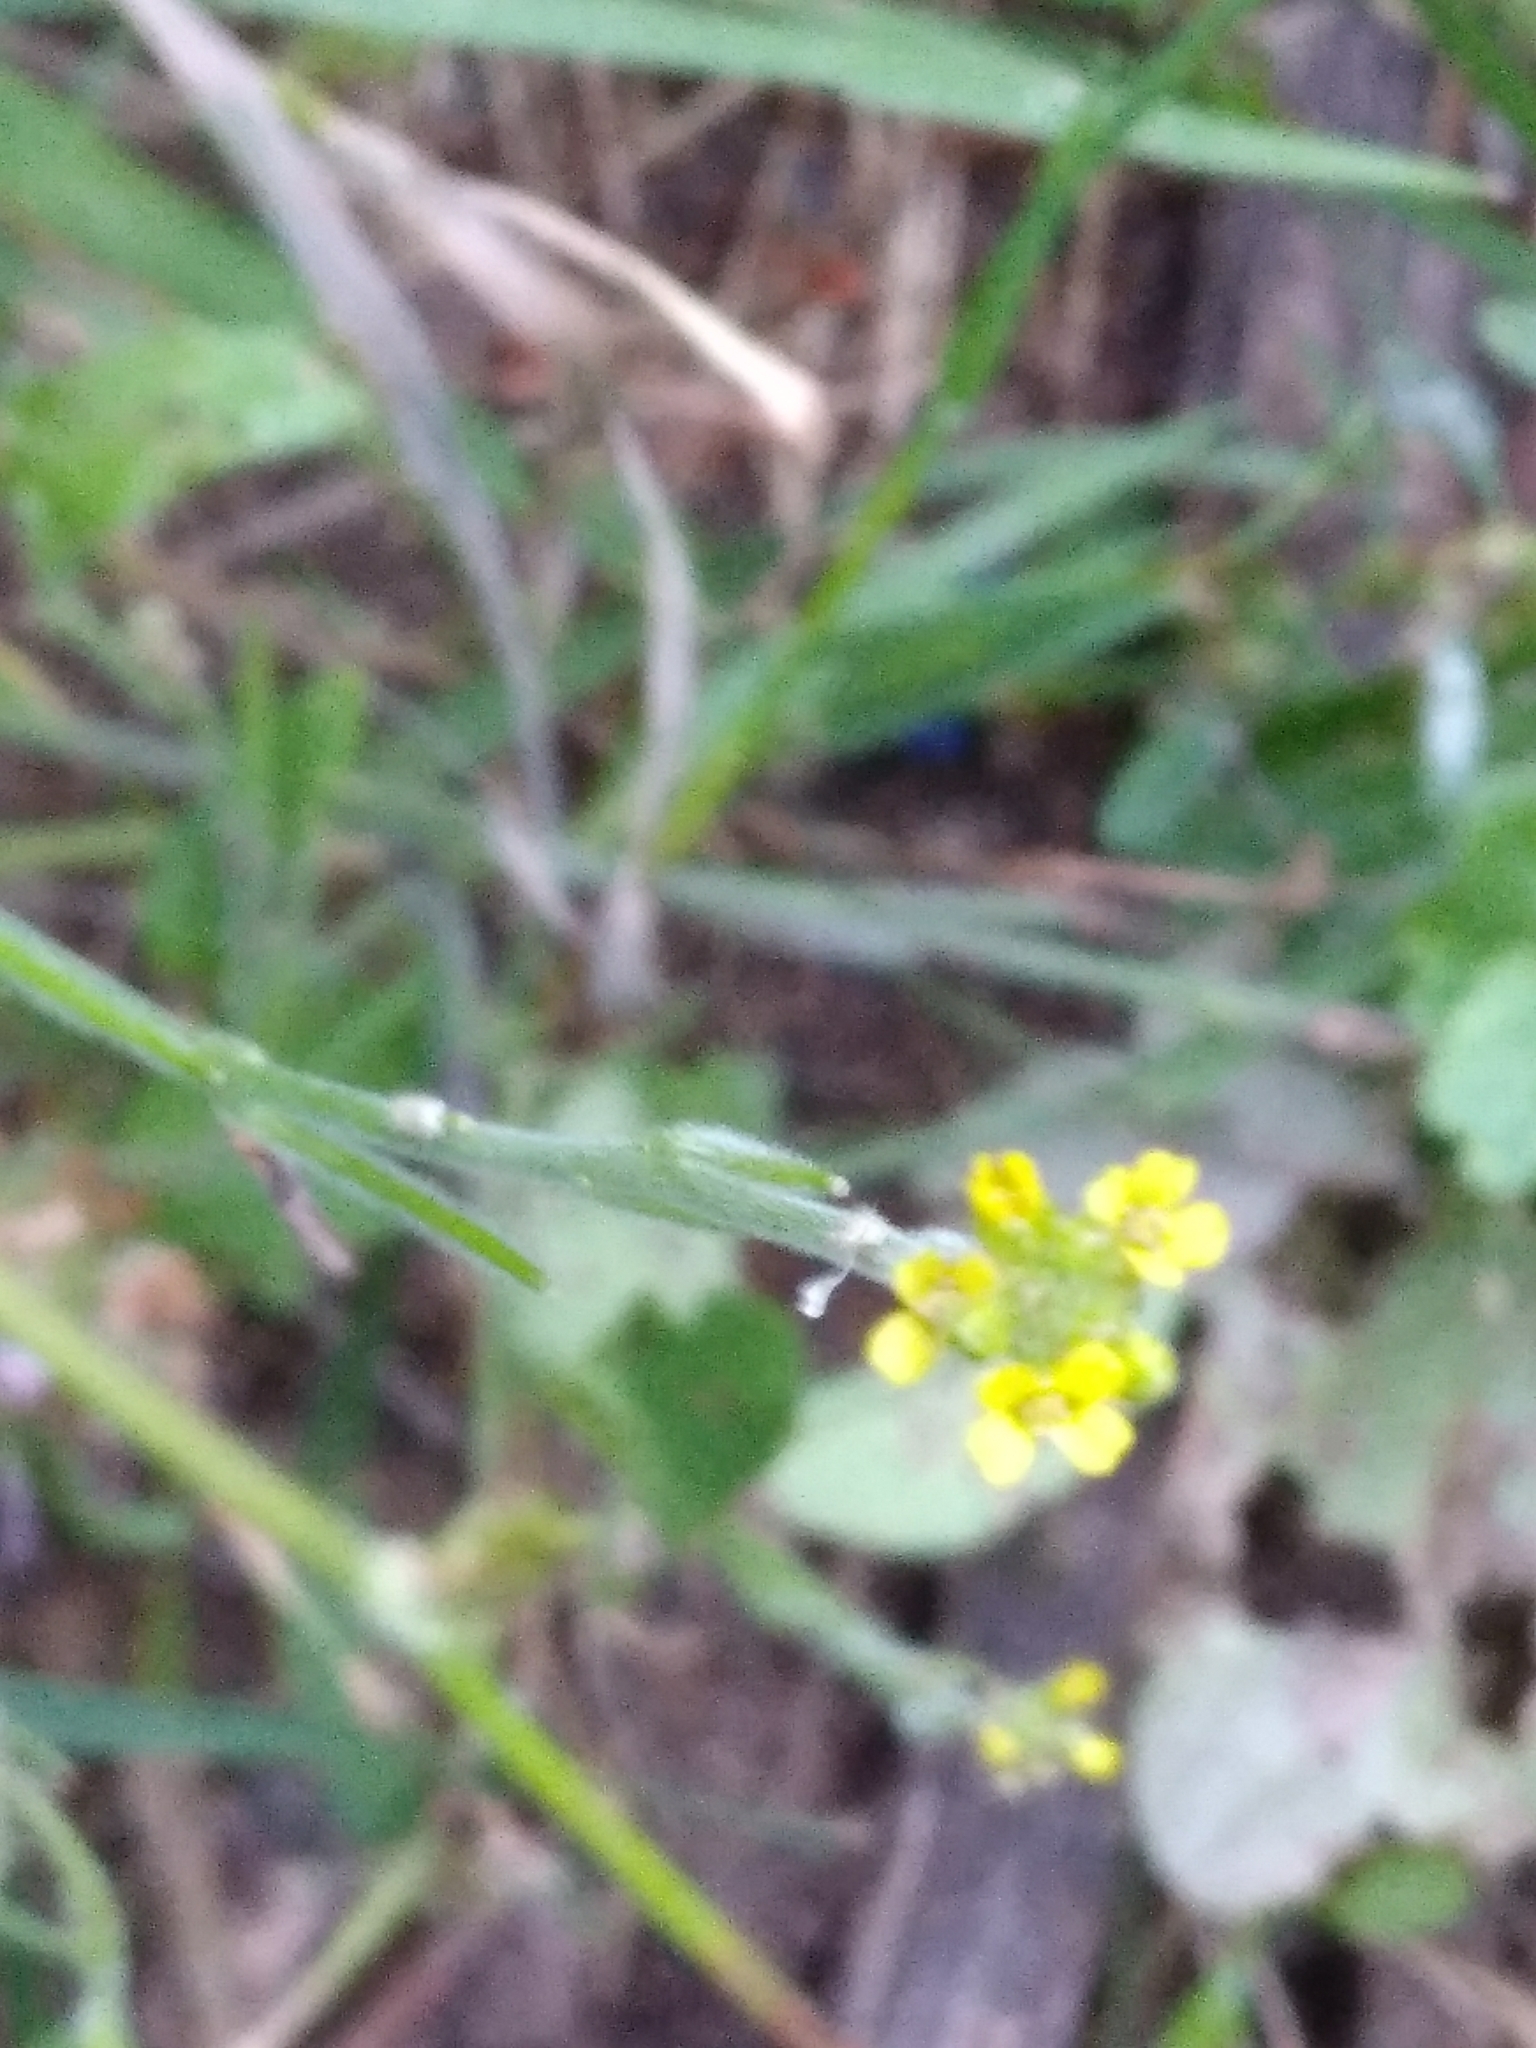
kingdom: Plantae
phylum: Tracheophyta
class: Magnoliopsida
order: Brassicales
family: Brassicaceae
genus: Sisymbrium
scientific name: Sisymbrium officinale
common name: Hedge mustard
